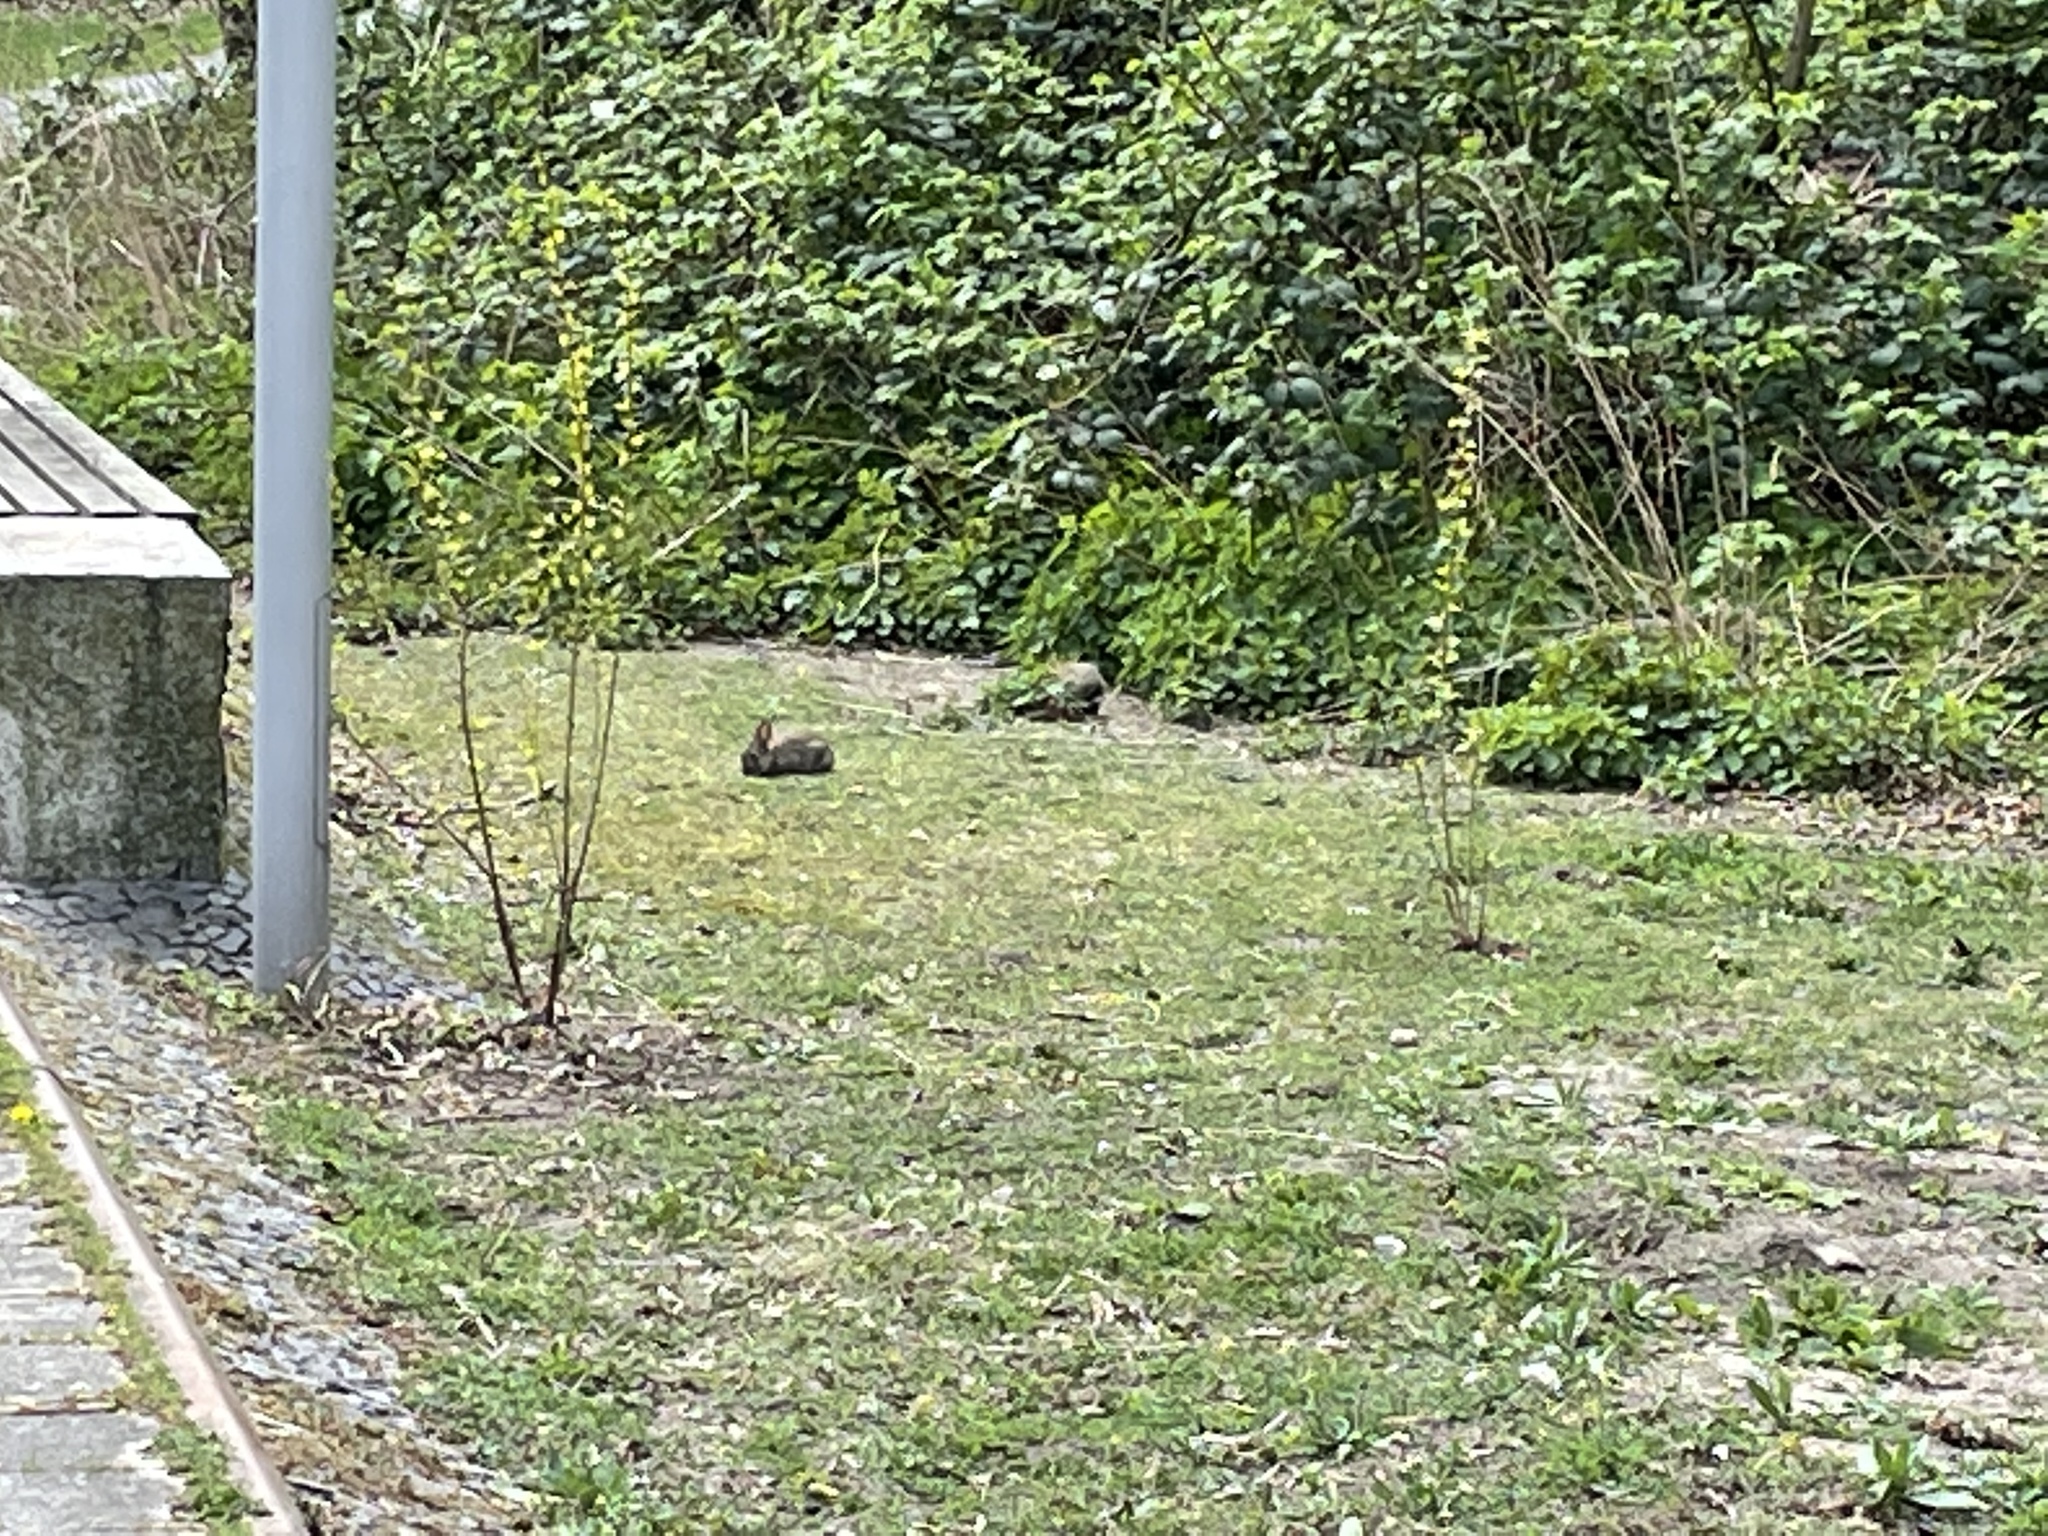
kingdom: Animalia
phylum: Chordata
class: Mammalia
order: Lagomorpha
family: Leporidae
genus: Oryctolagus
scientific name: Oryctolagus cuniculus
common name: European rabbit
